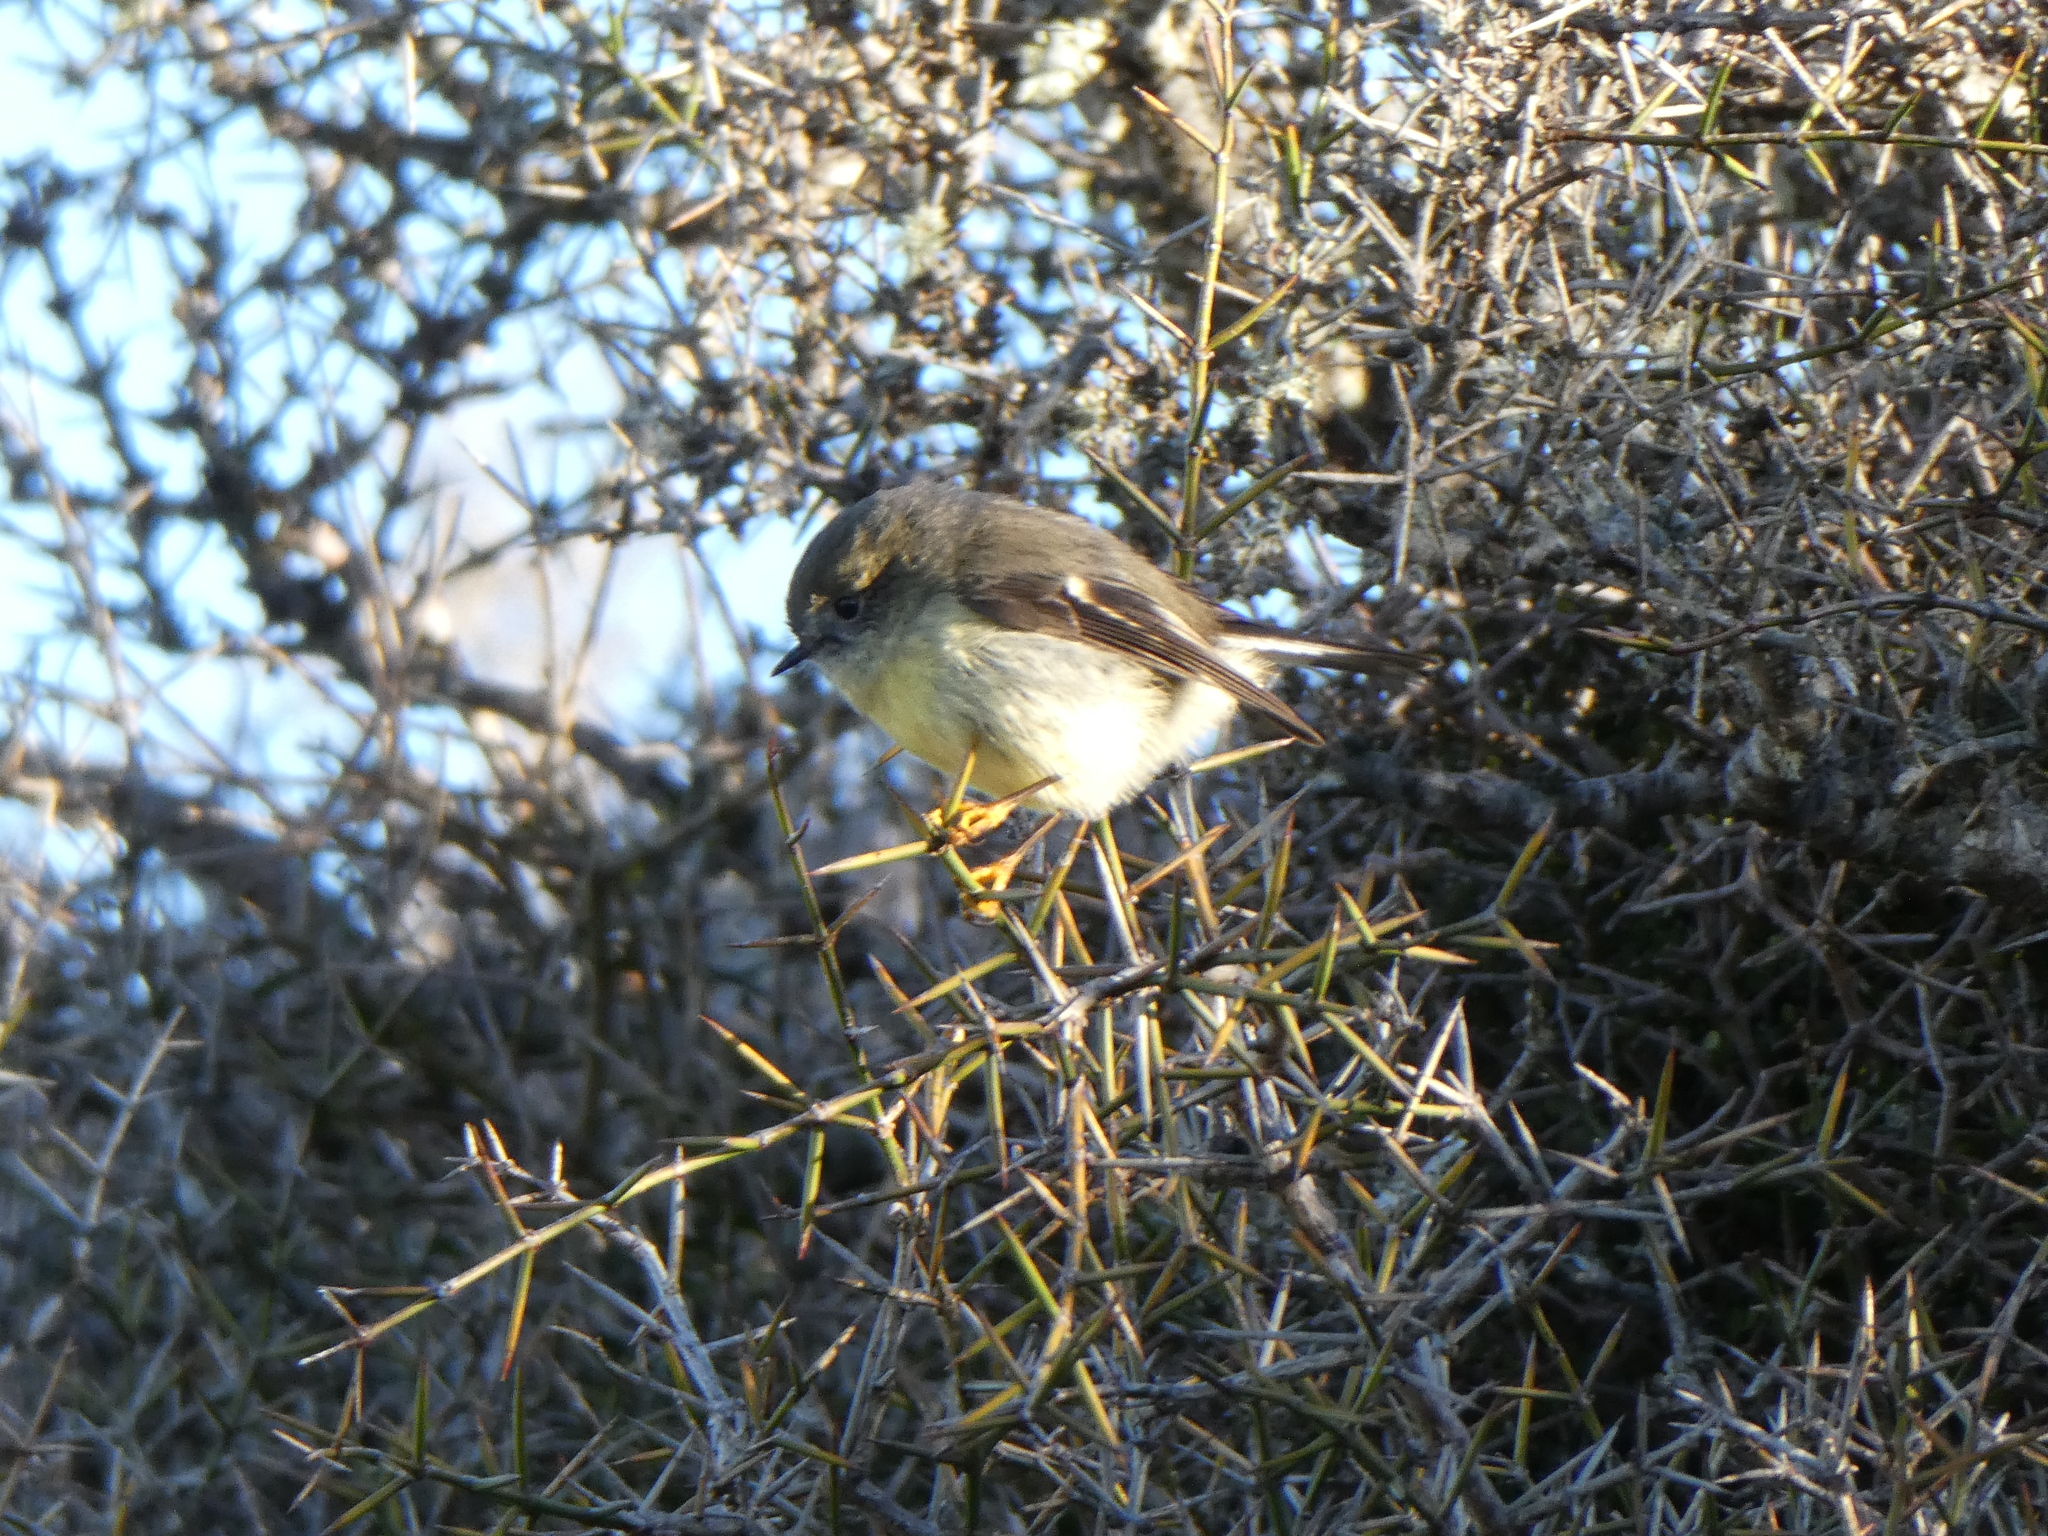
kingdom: Animalia
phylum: Chordata
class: Aves
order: Passeriformes
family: Petroicidae
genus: Petroica
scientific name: Petroica macrocephala
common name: Tomtit
